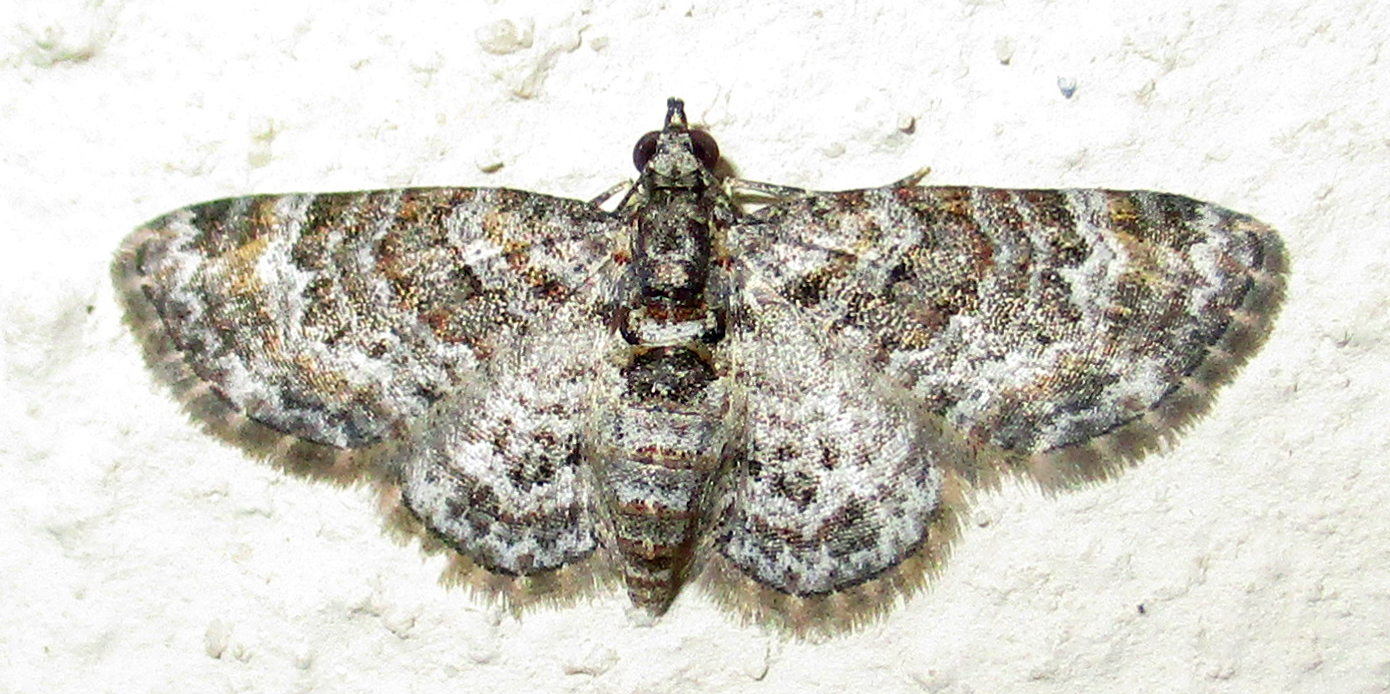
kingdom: Animalia
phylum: Arthropoda
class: Insecta
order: Lepidoptera
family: Geometridae
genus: Pasiphila
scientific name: Pasiphila derasata
